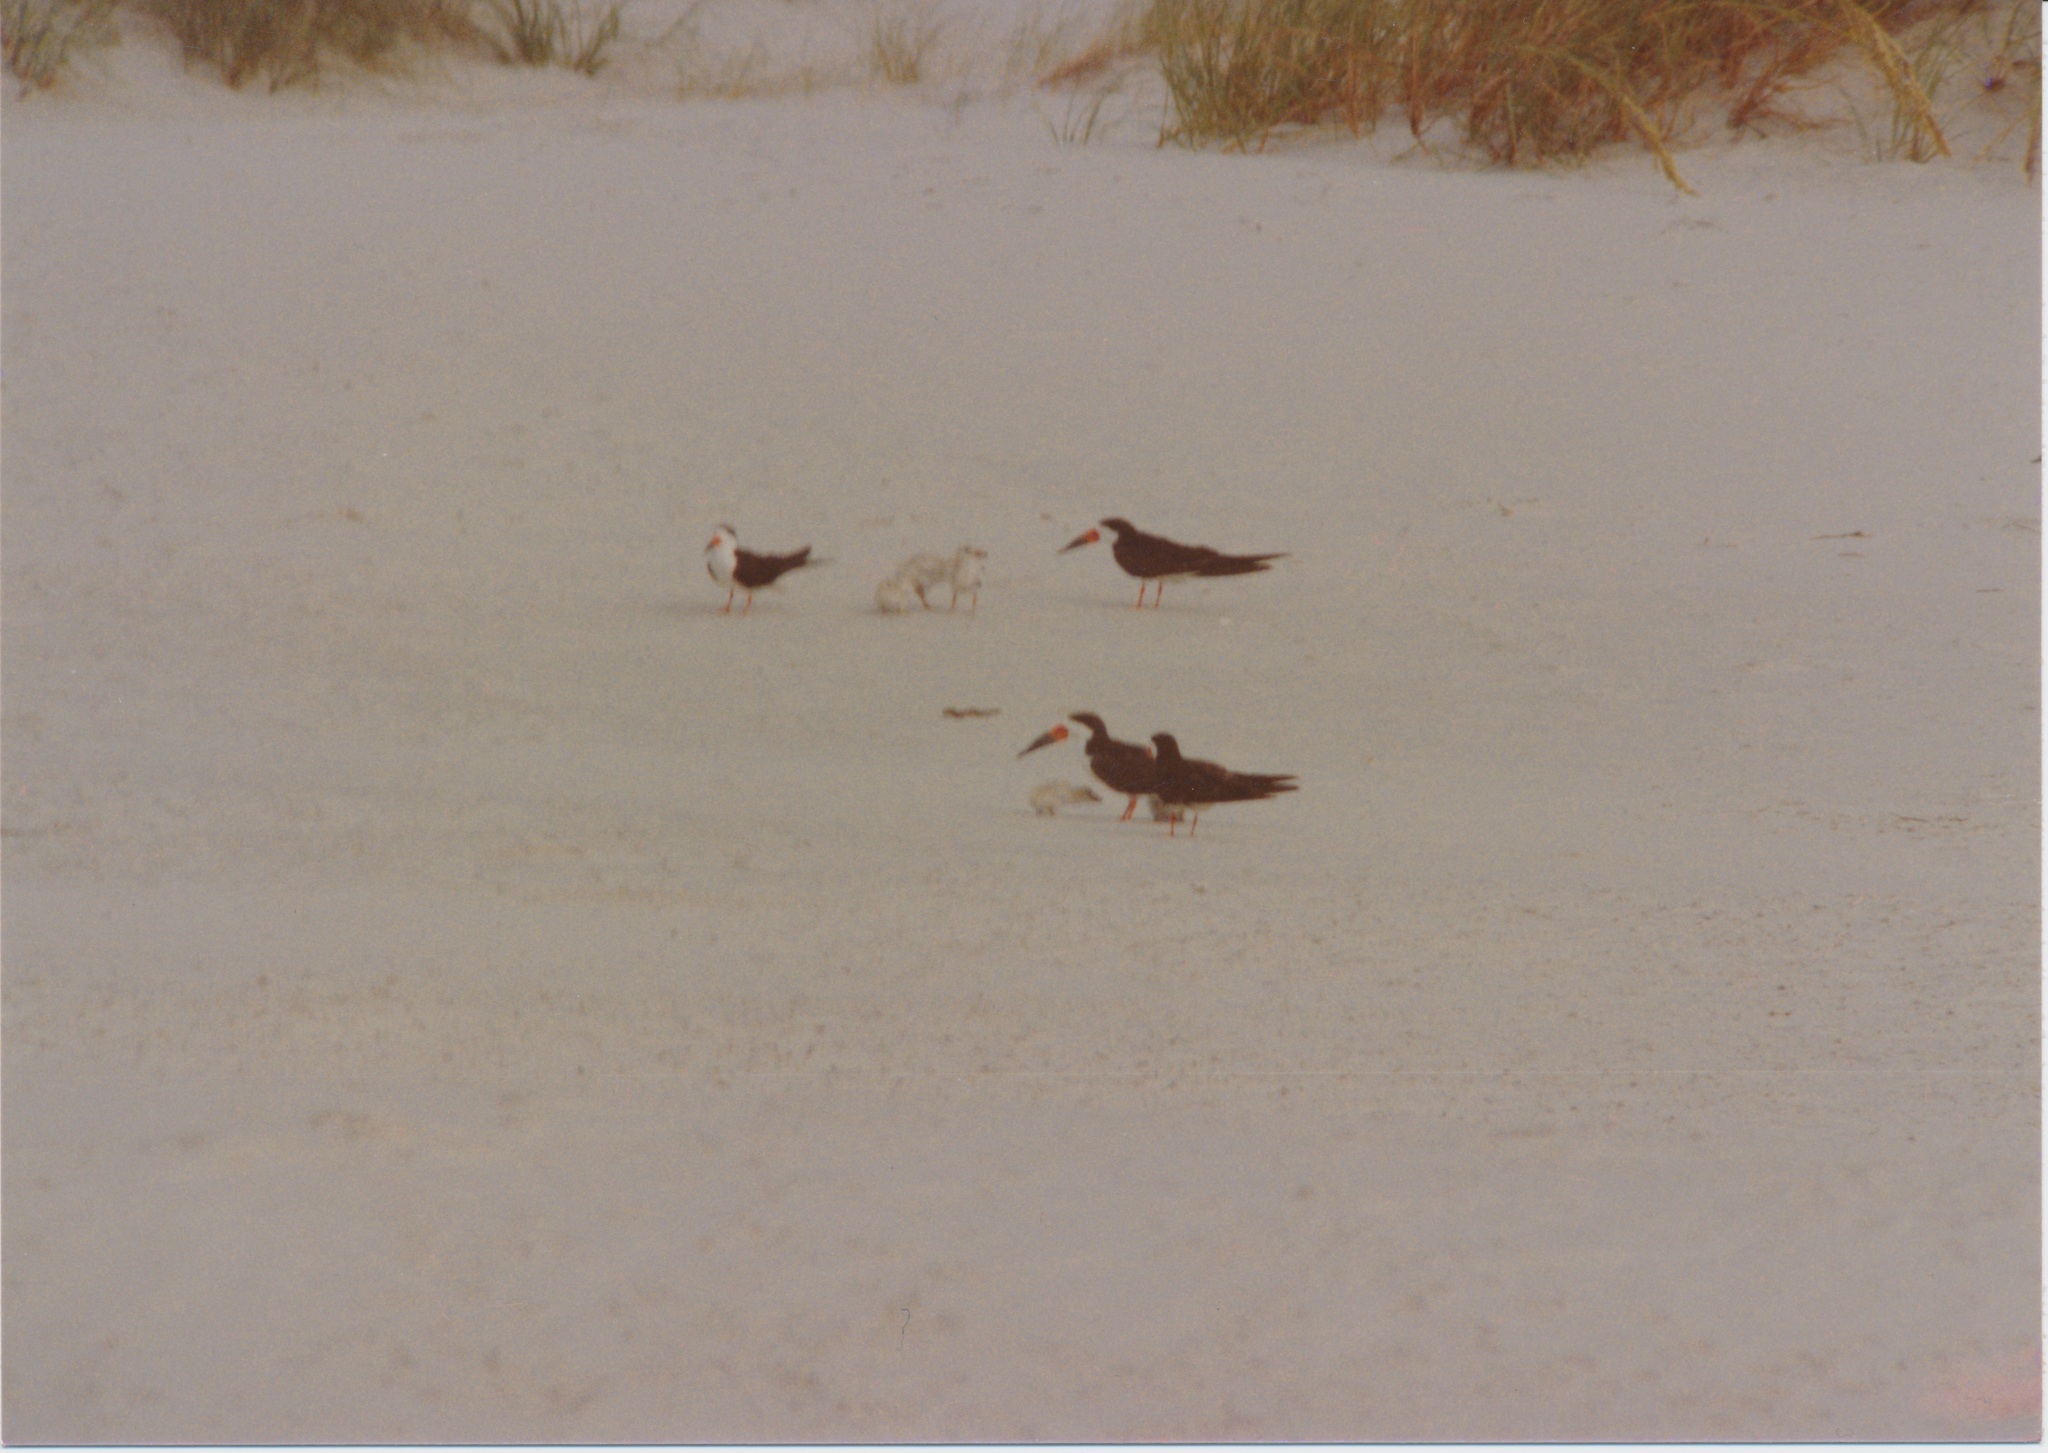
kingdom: Animalia
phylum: Chordata
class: Aves
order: Charadriiformes
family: Laridae
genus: Rynchops
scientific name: Rynchops niger
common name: Black skimmer
